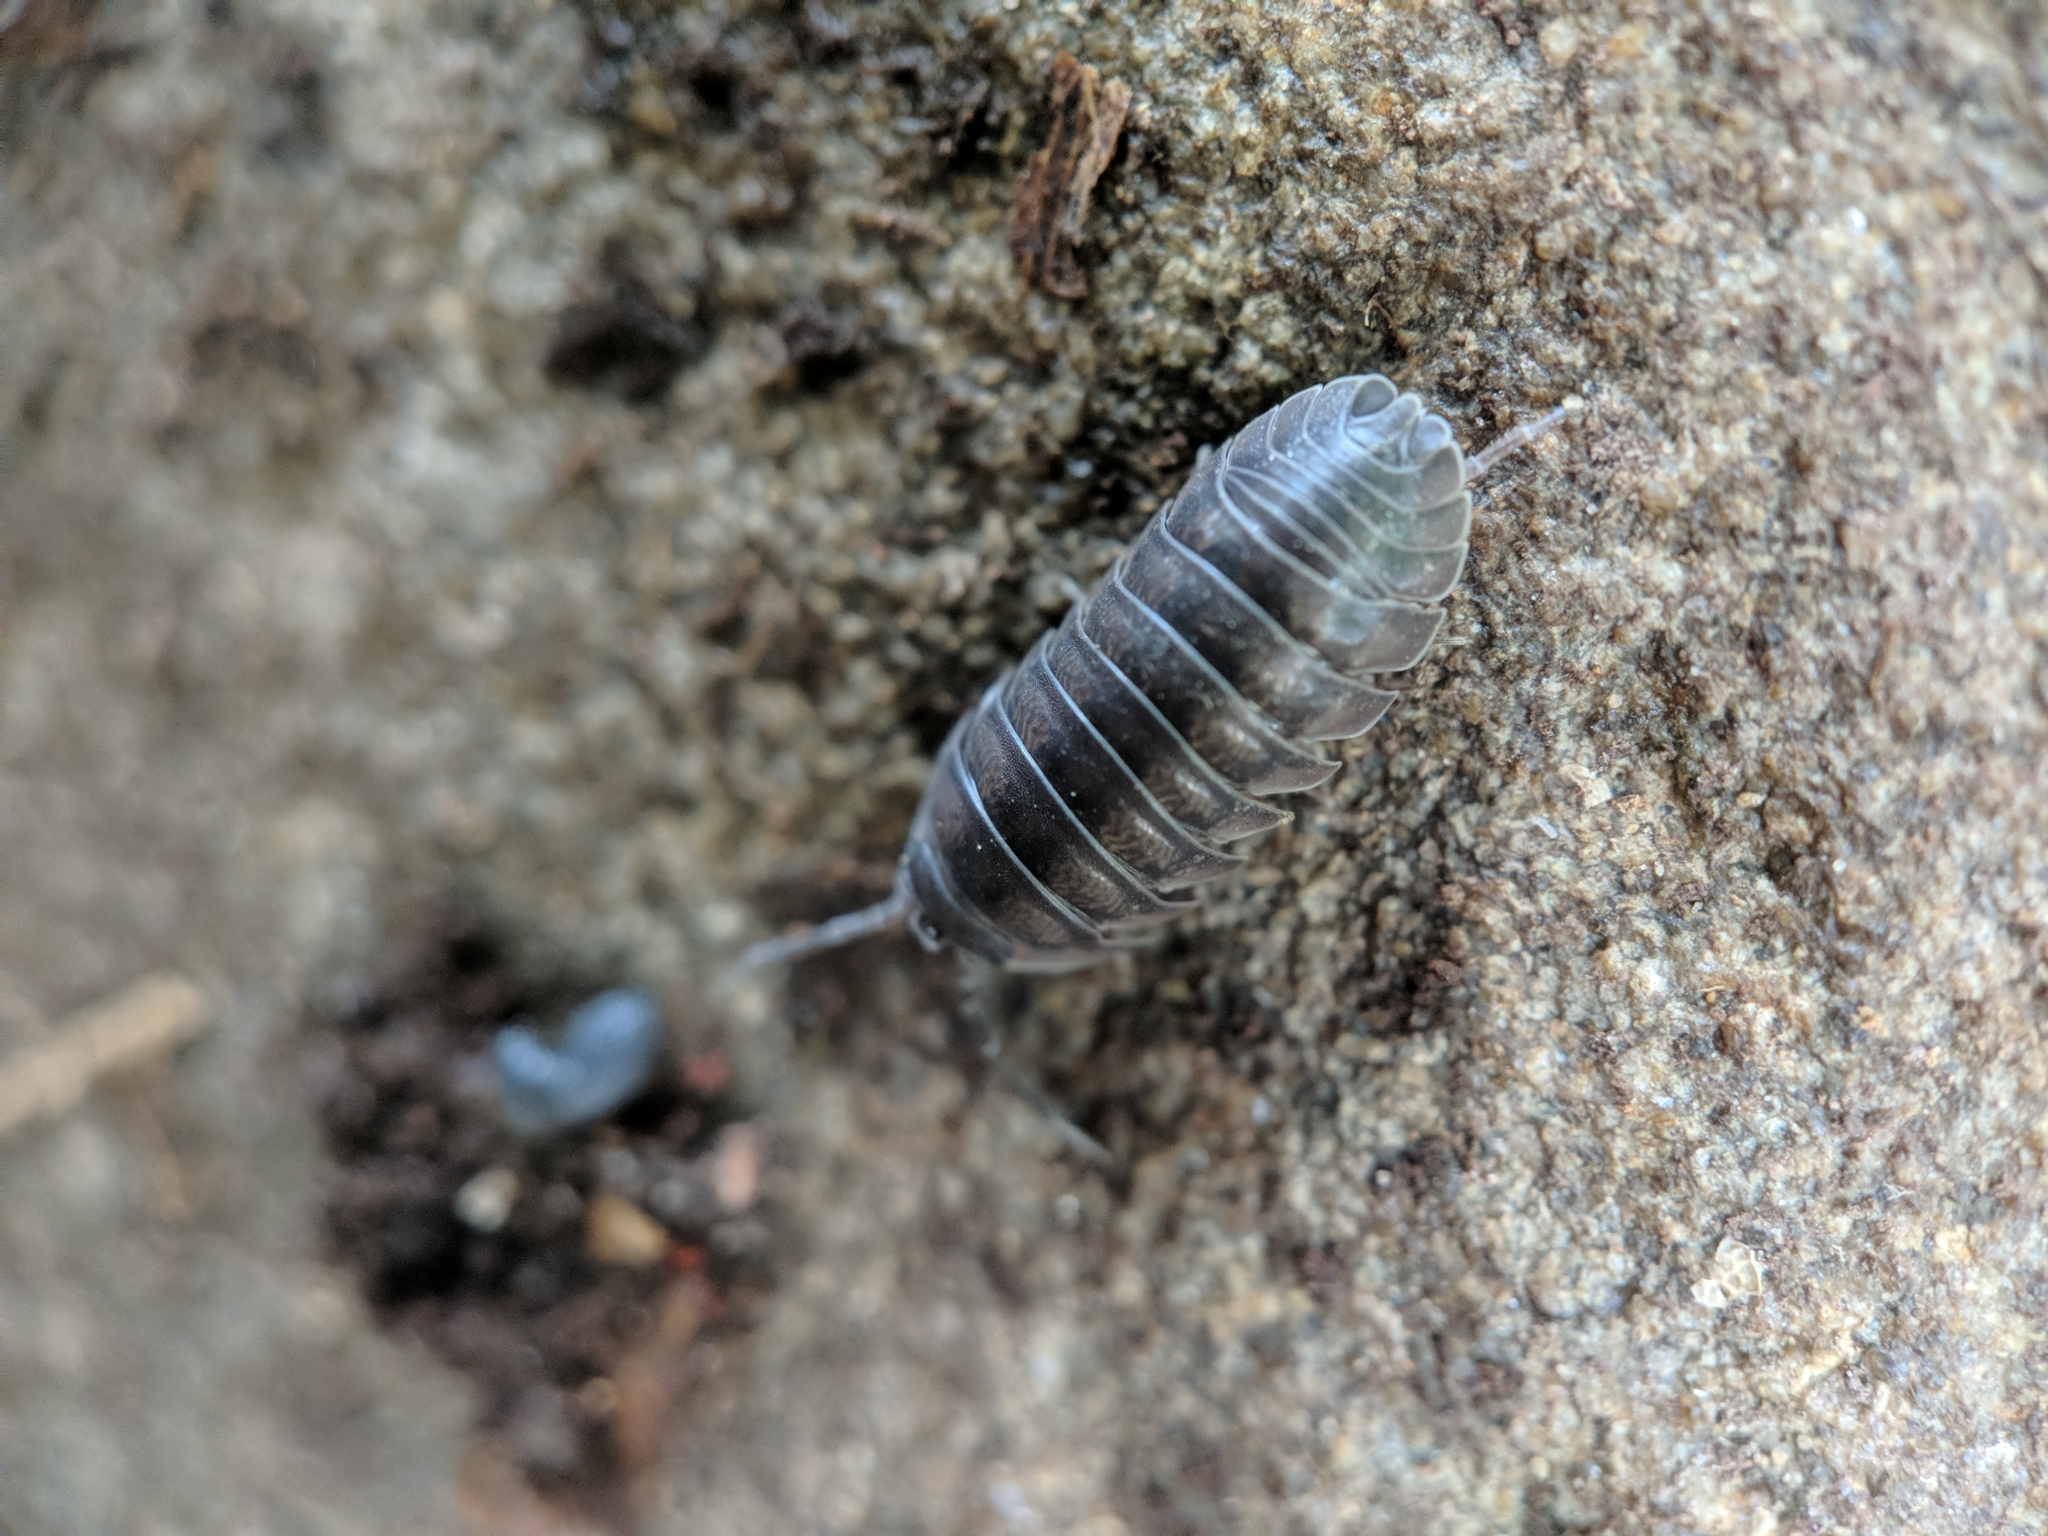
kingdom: Animalia
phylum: Arthropoda
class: Malacostraca
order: Isopoda
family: Armadillidiidae
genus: Armadillidium
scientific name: Armadillidium nasatum
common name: Isopod
